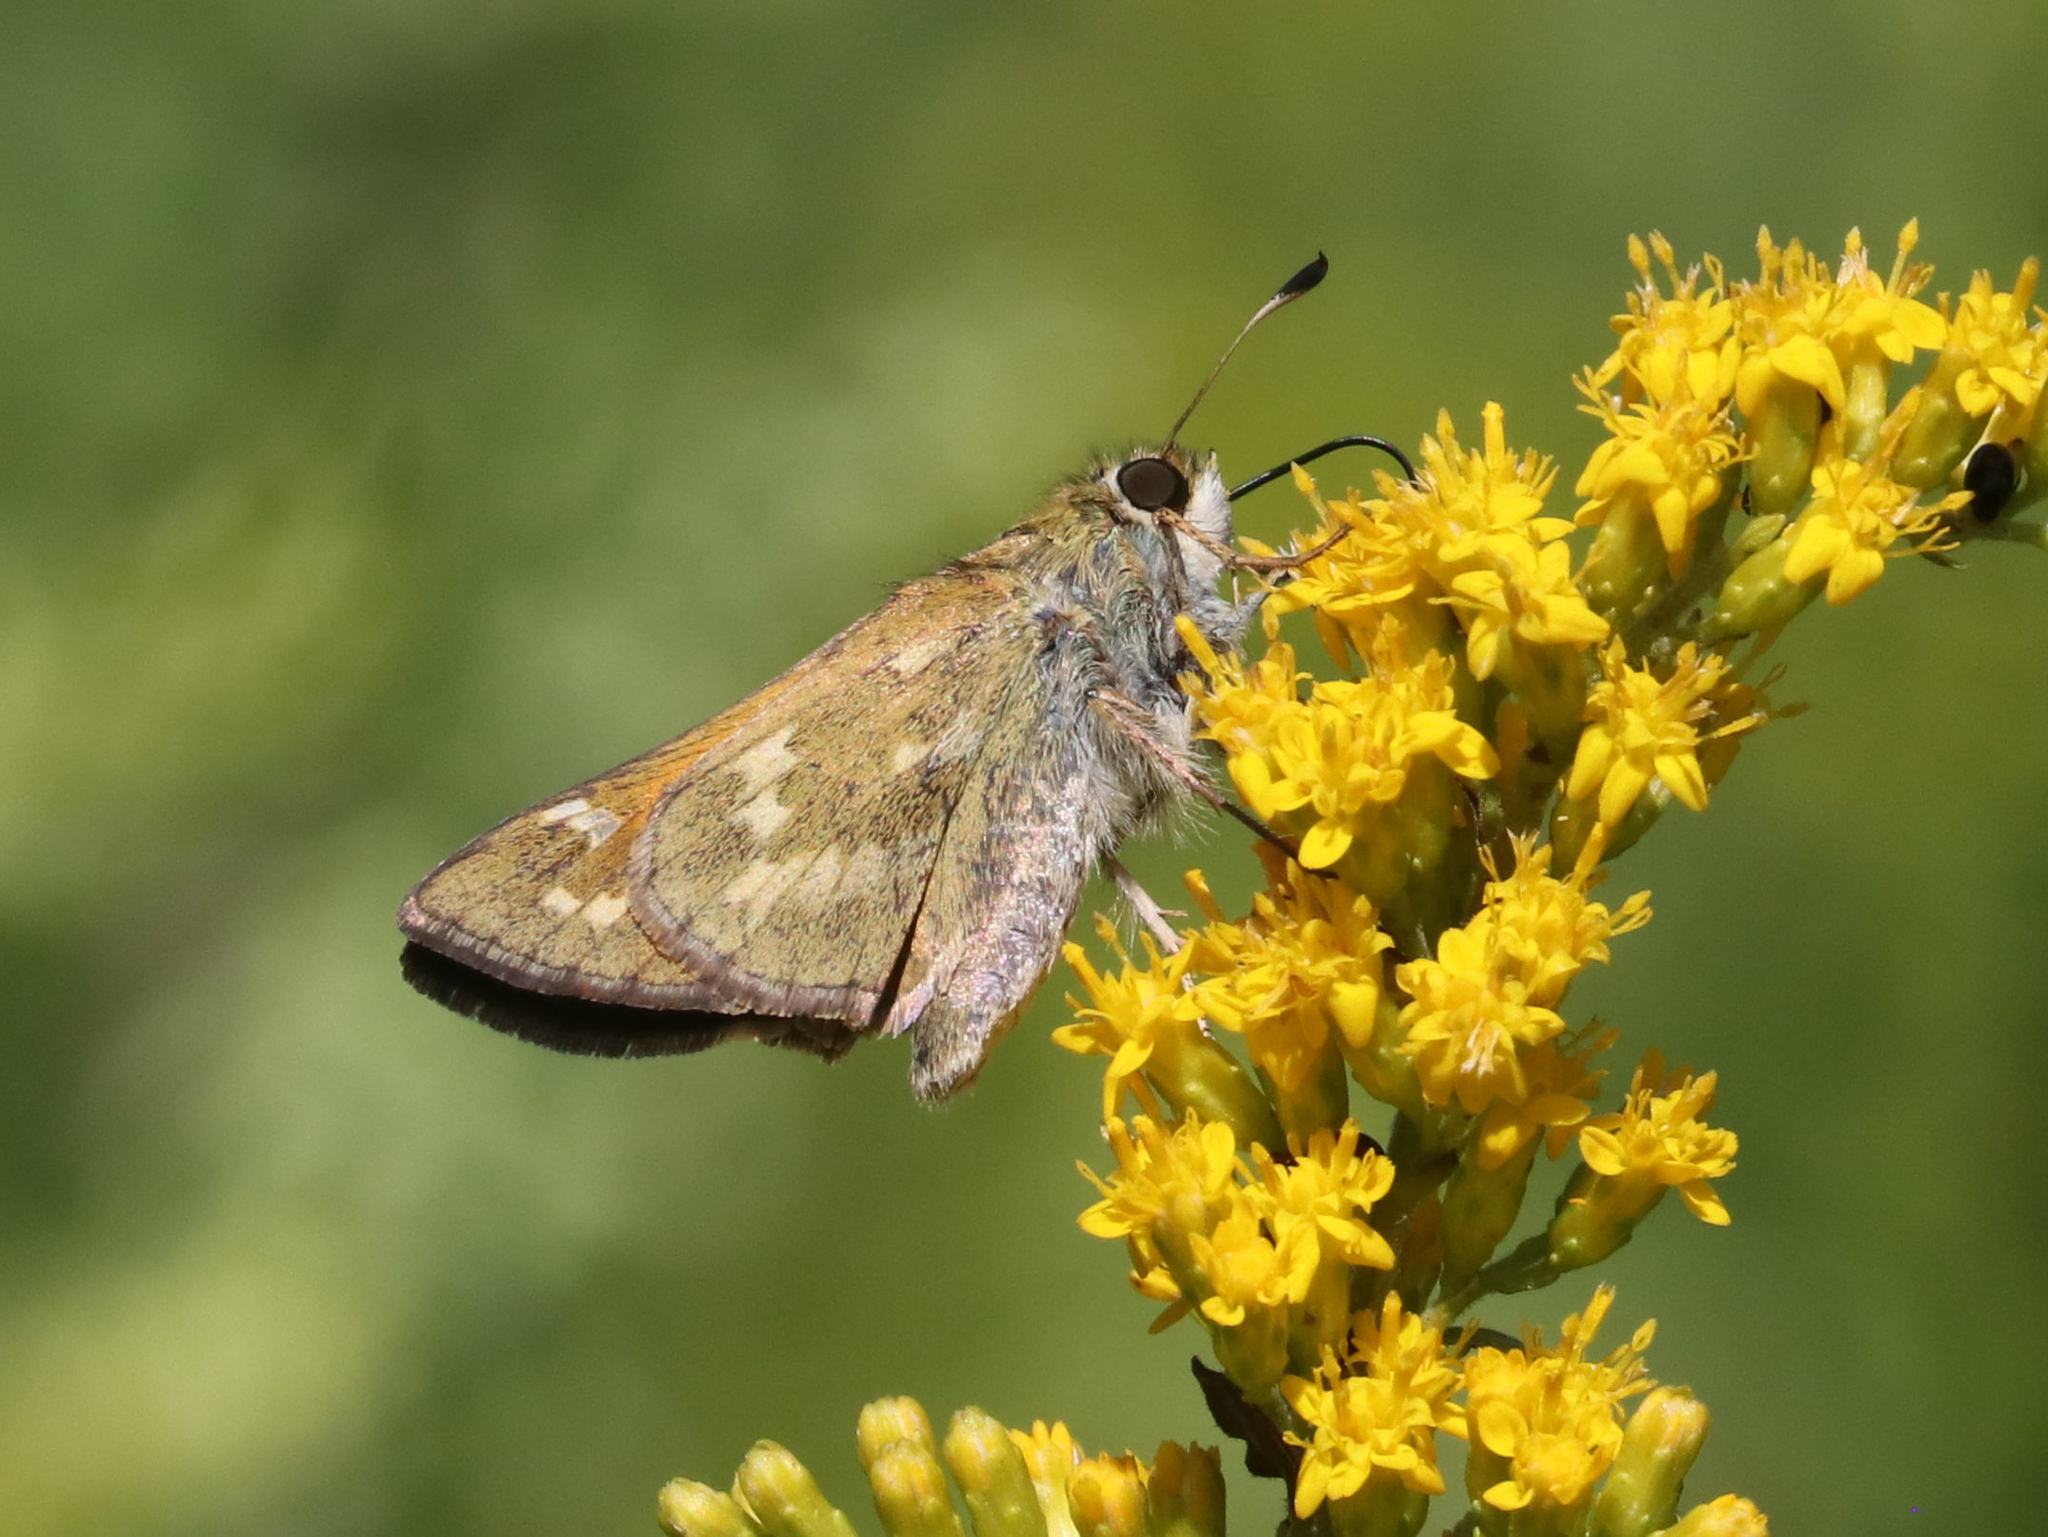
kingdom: Animalia
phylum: Arthropoda
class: Insecta
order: Lepidoptera
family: Hesperiidae
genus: Atalopedes
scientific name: Atalopedes
